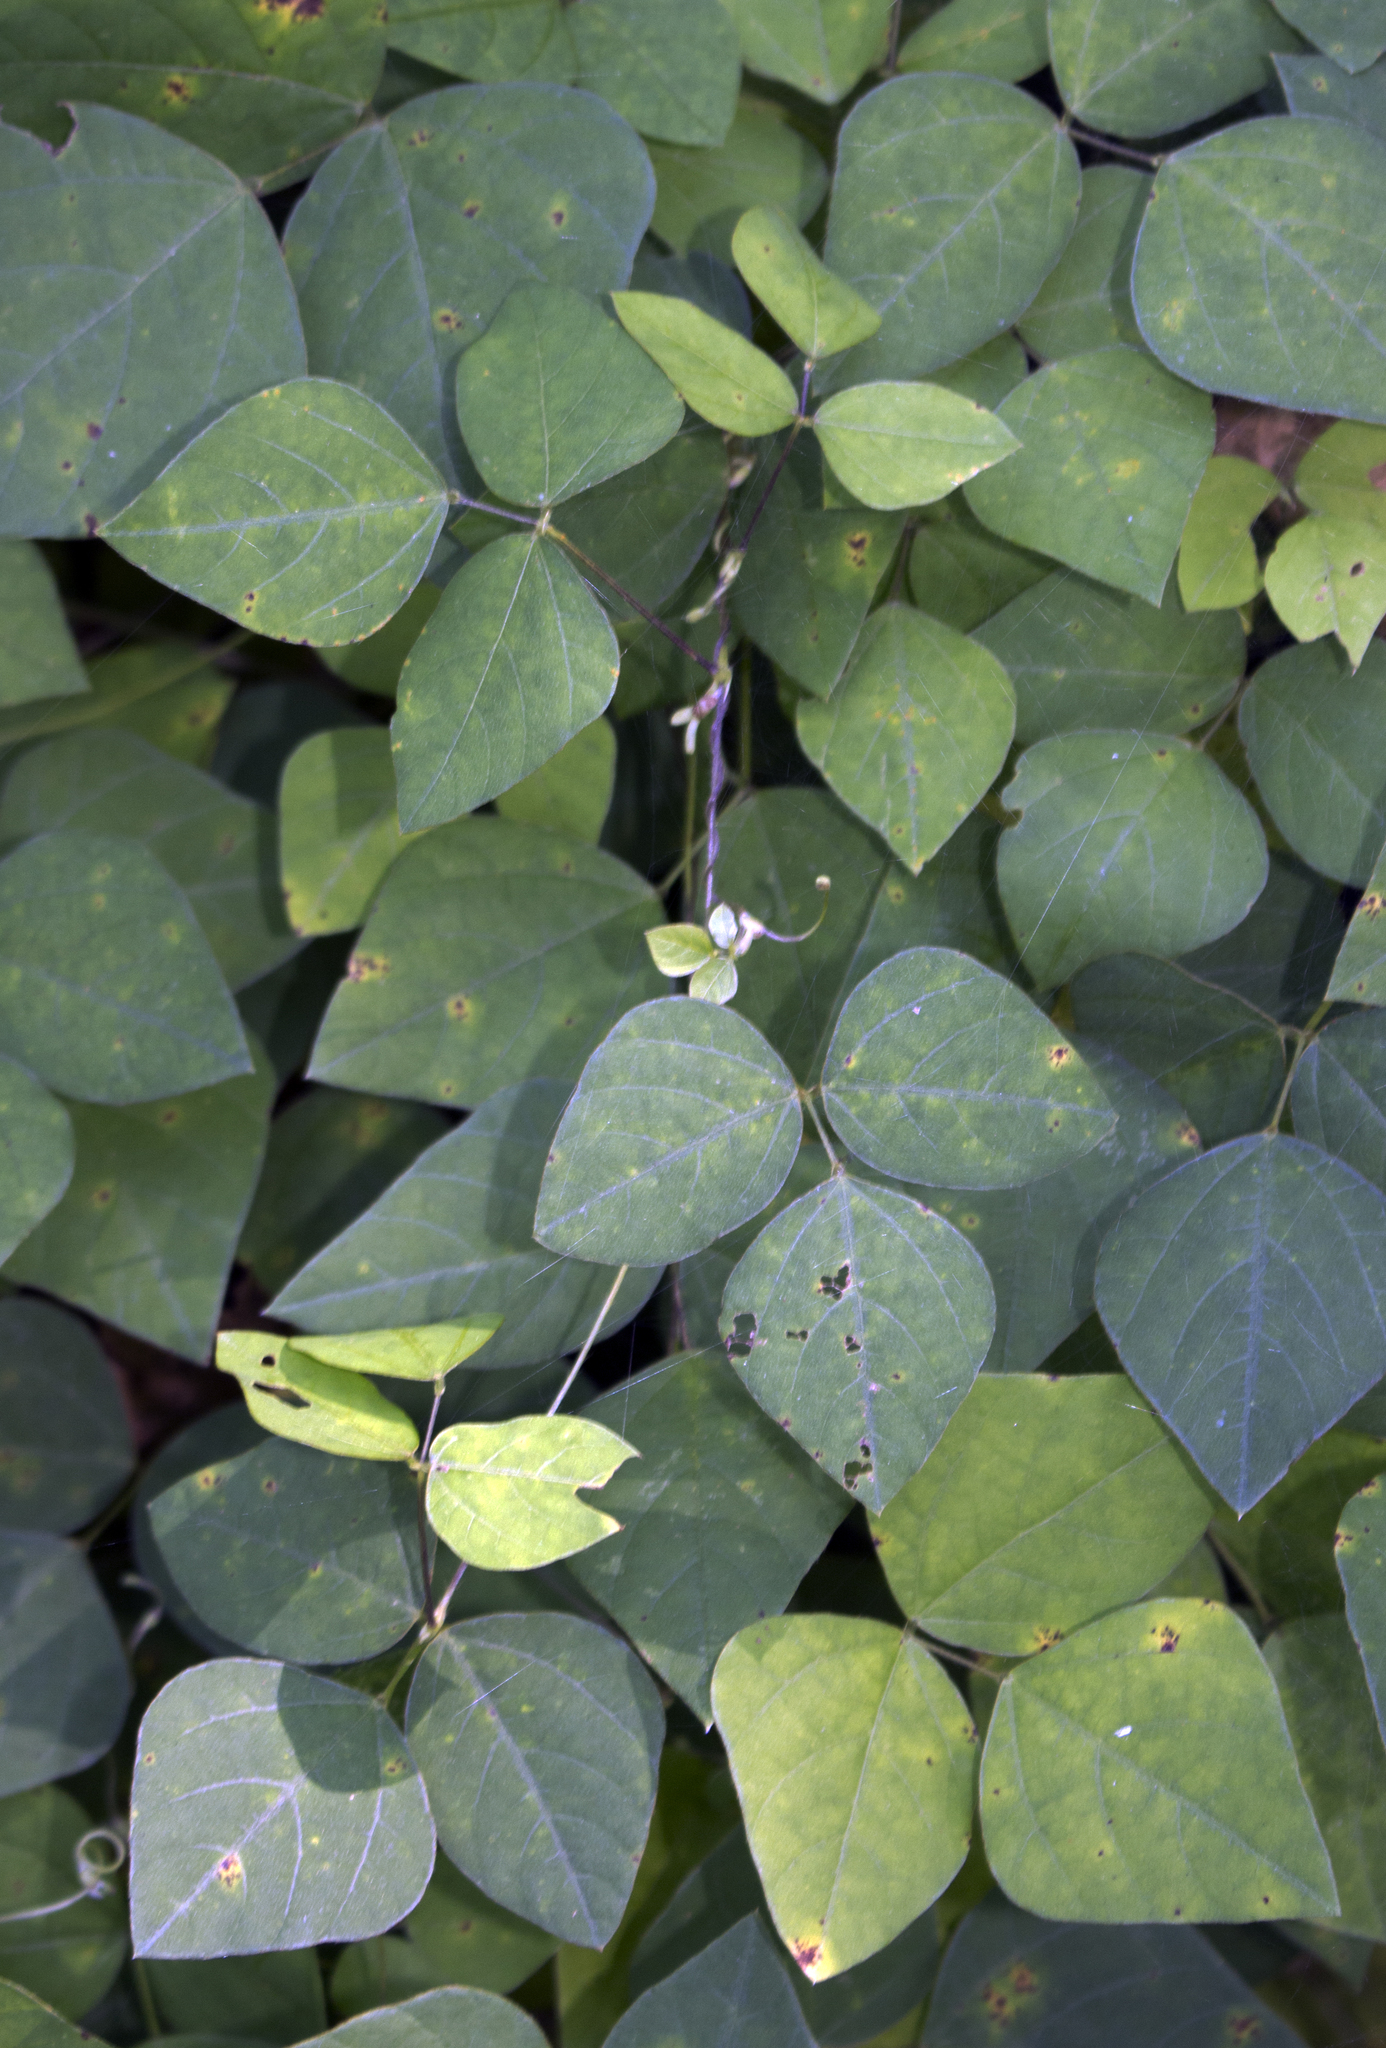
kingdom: Plantae
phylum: Tracheophyta
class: Magnoliopsida
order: Fabales
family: Fabaceae
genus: Amphicarpaea
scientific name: Amphicarpaea bracteata
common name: American hog peanut
